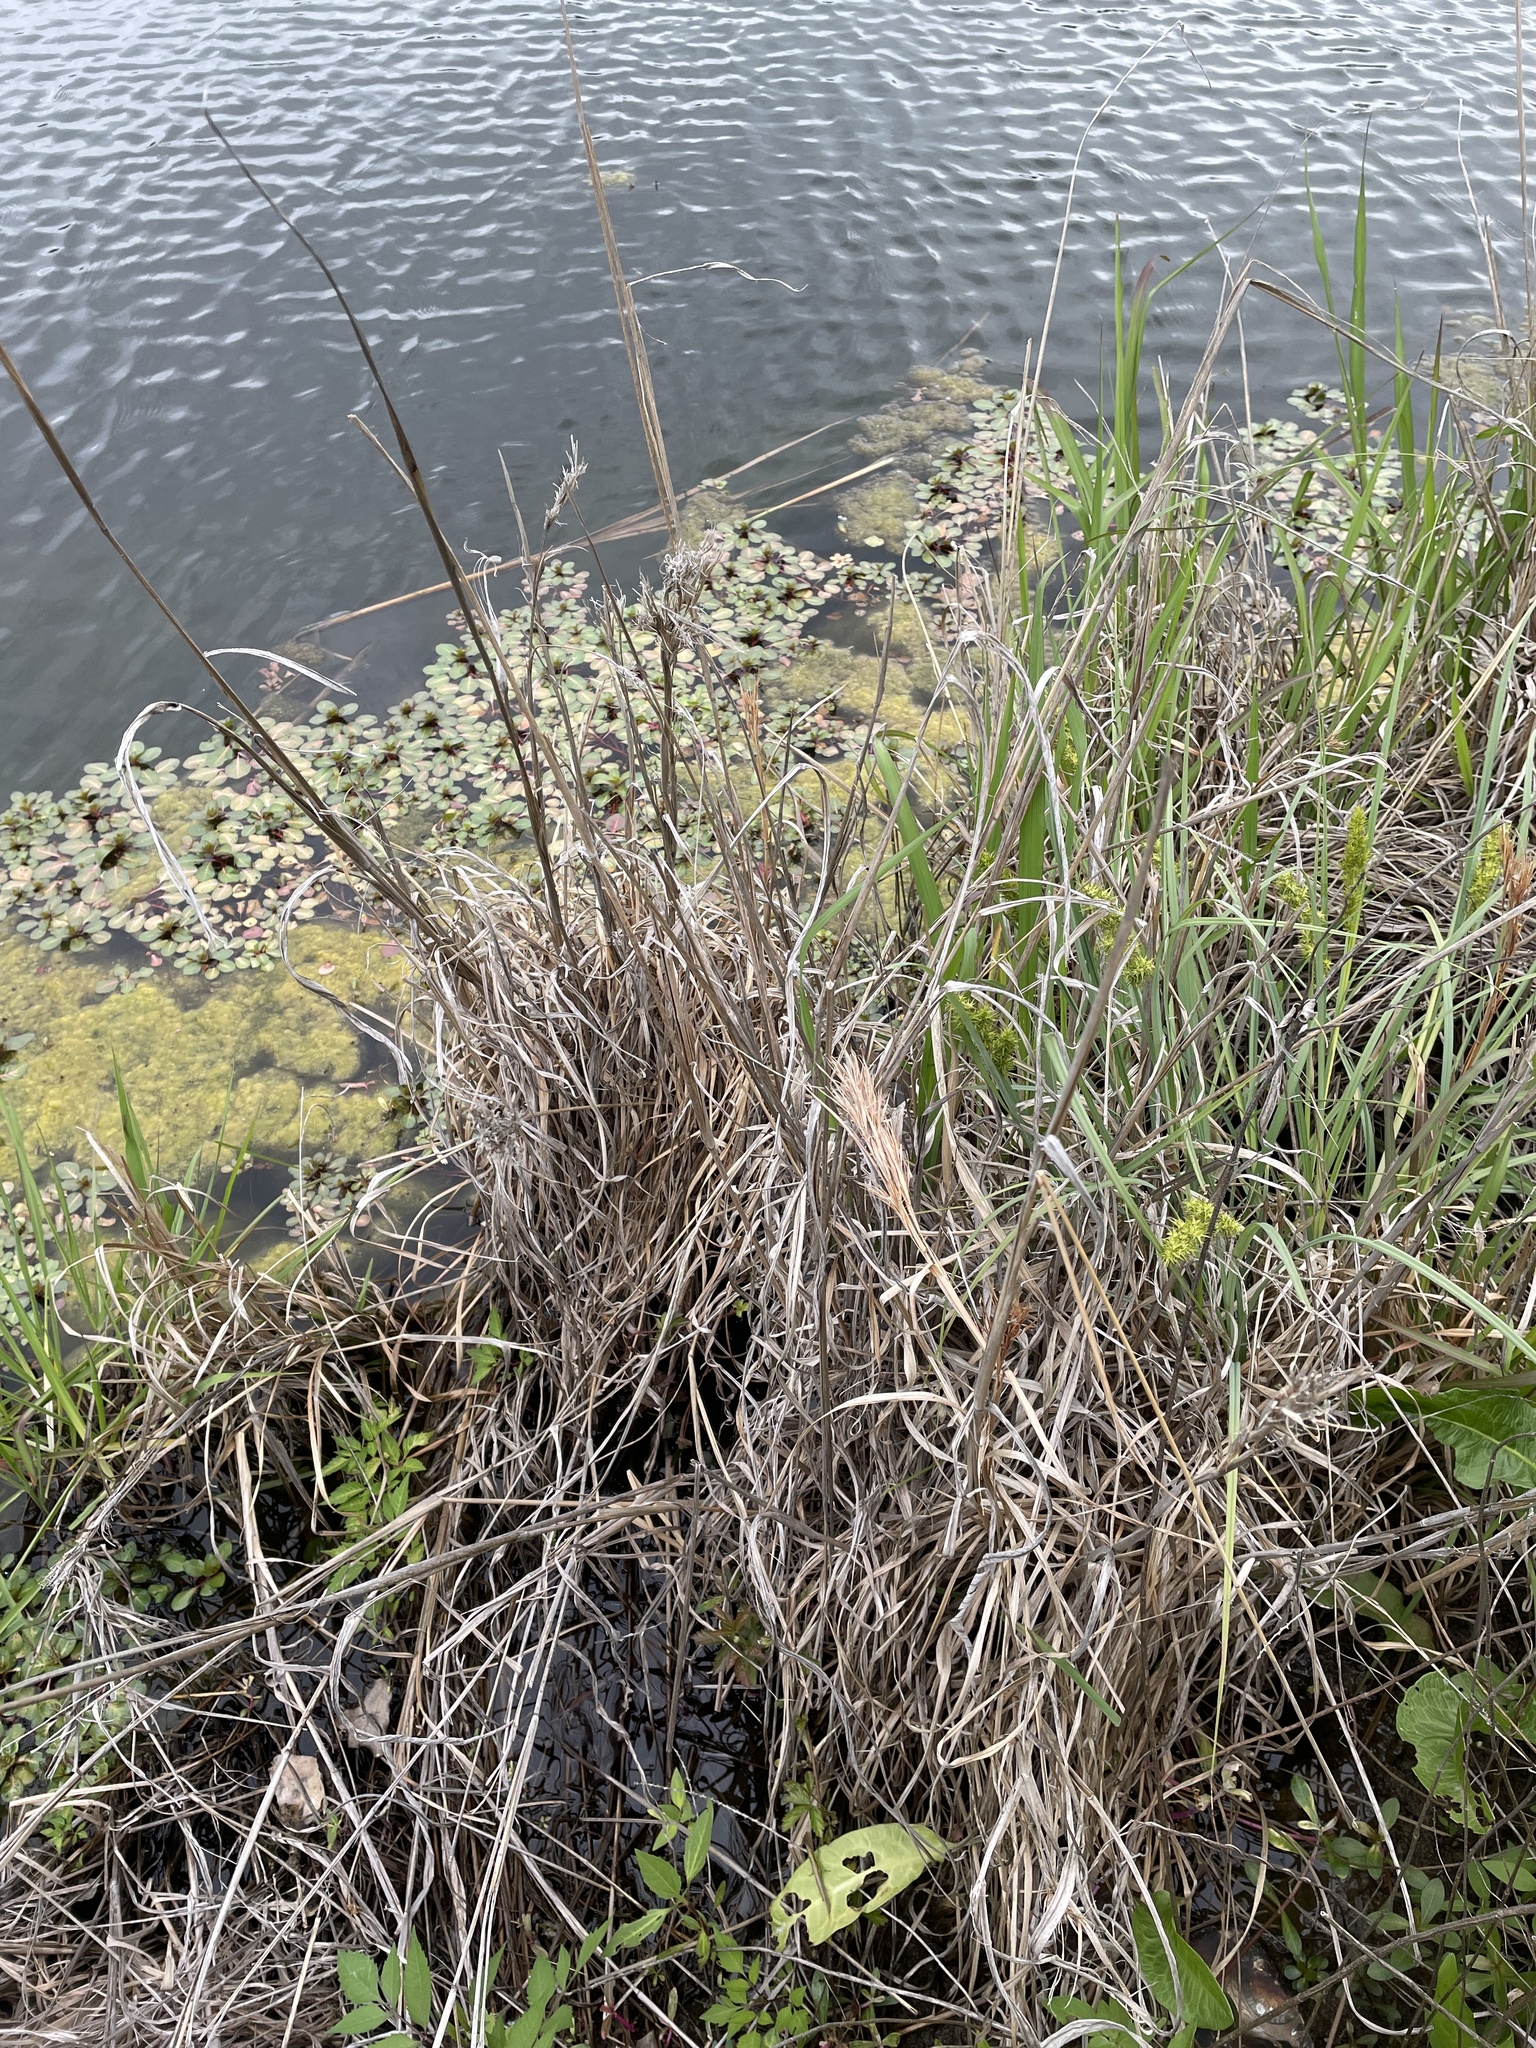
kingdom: Plantae
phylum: Tracheophyta
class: Liliopsida
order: Poales
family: Poaceae
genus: Andropogon
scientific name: Andropogon tenuispatheus
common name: Bushy bluestem
